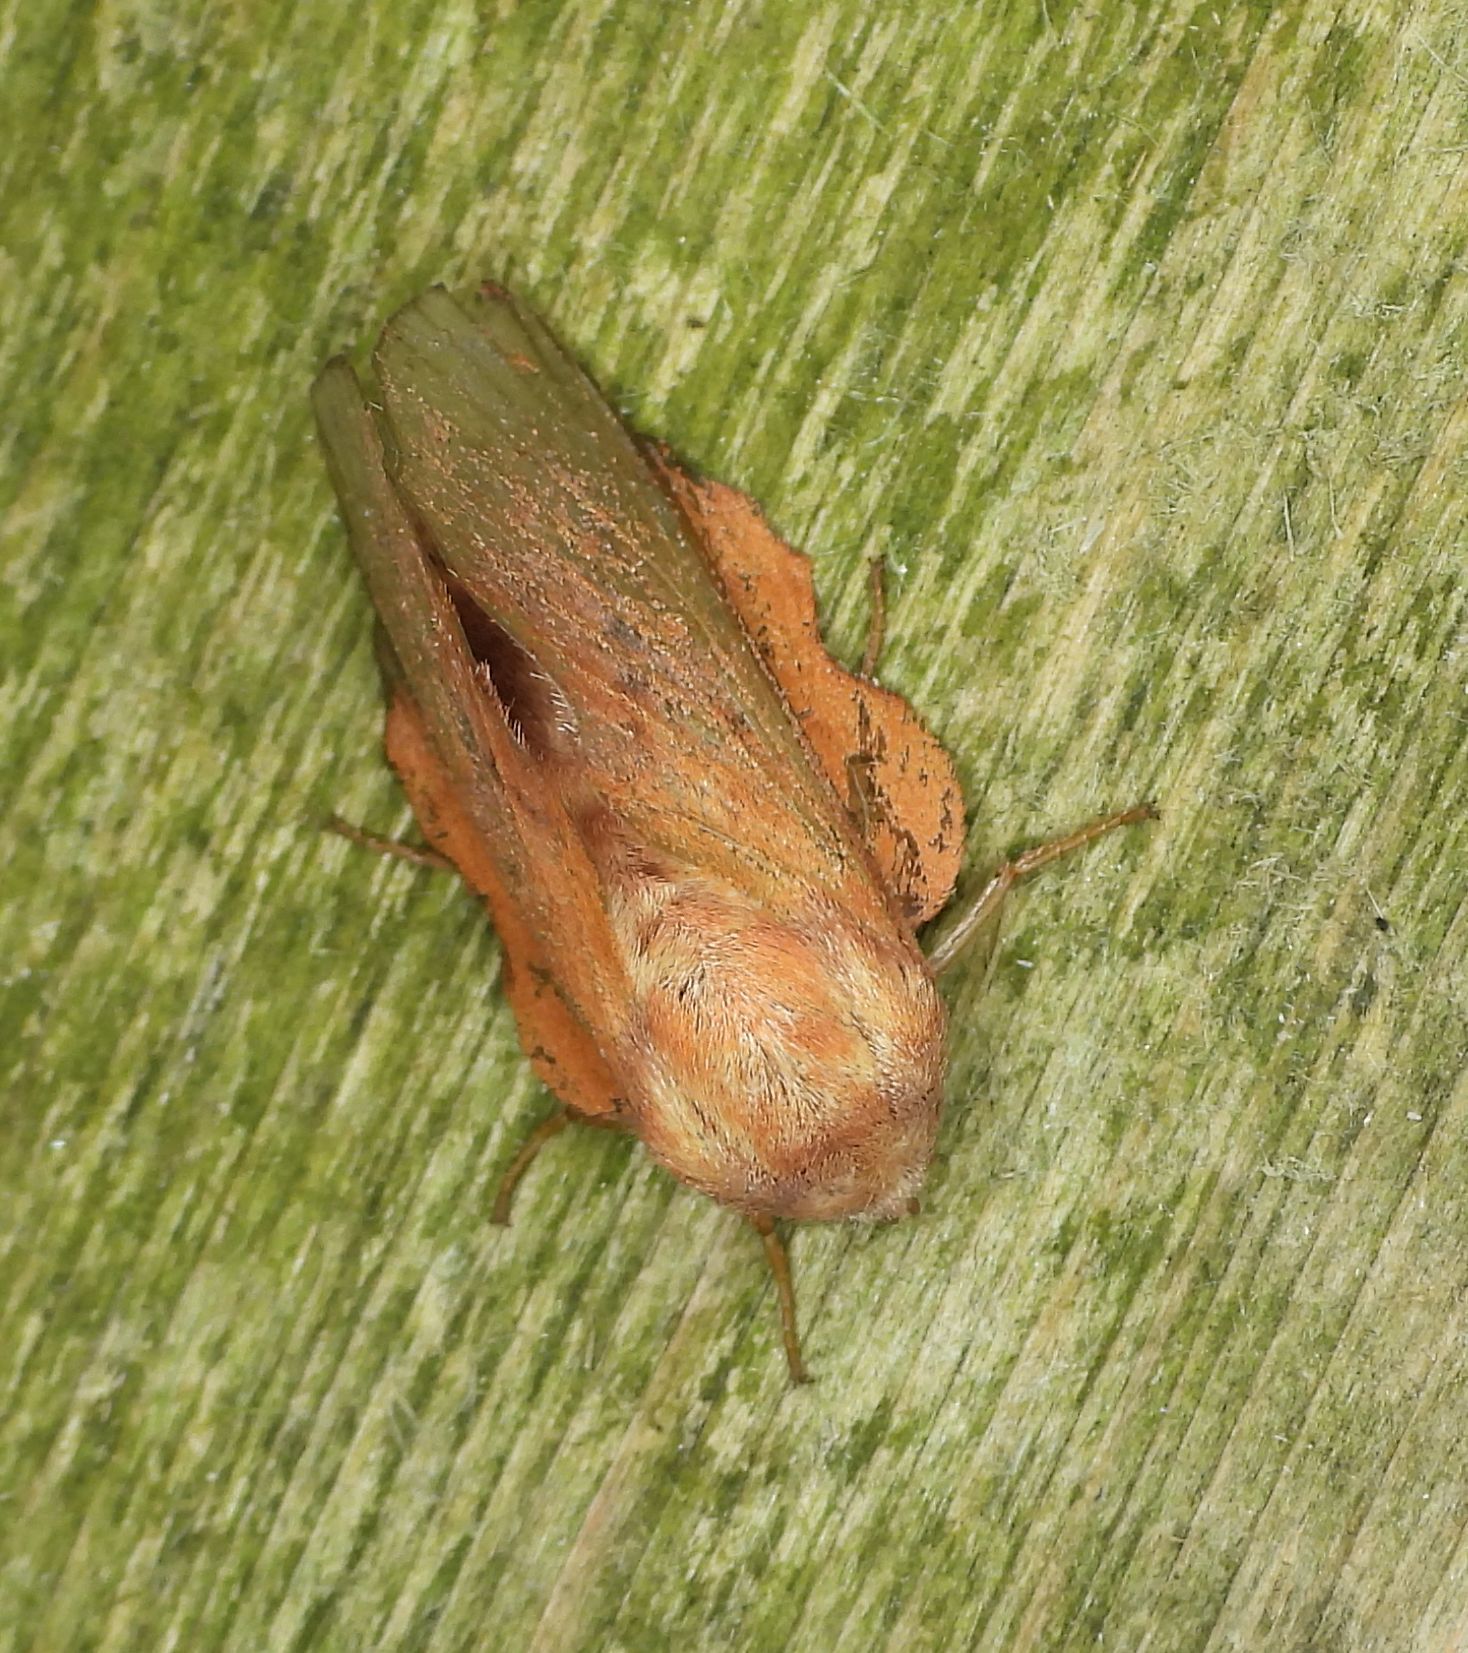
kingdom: Animalia
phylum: Arthropoda
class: Insecta
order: Lepidoptera
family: Lasiocampidae
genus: Phyllodesma
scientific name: Phyllodesma americana
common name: American lappet moth
